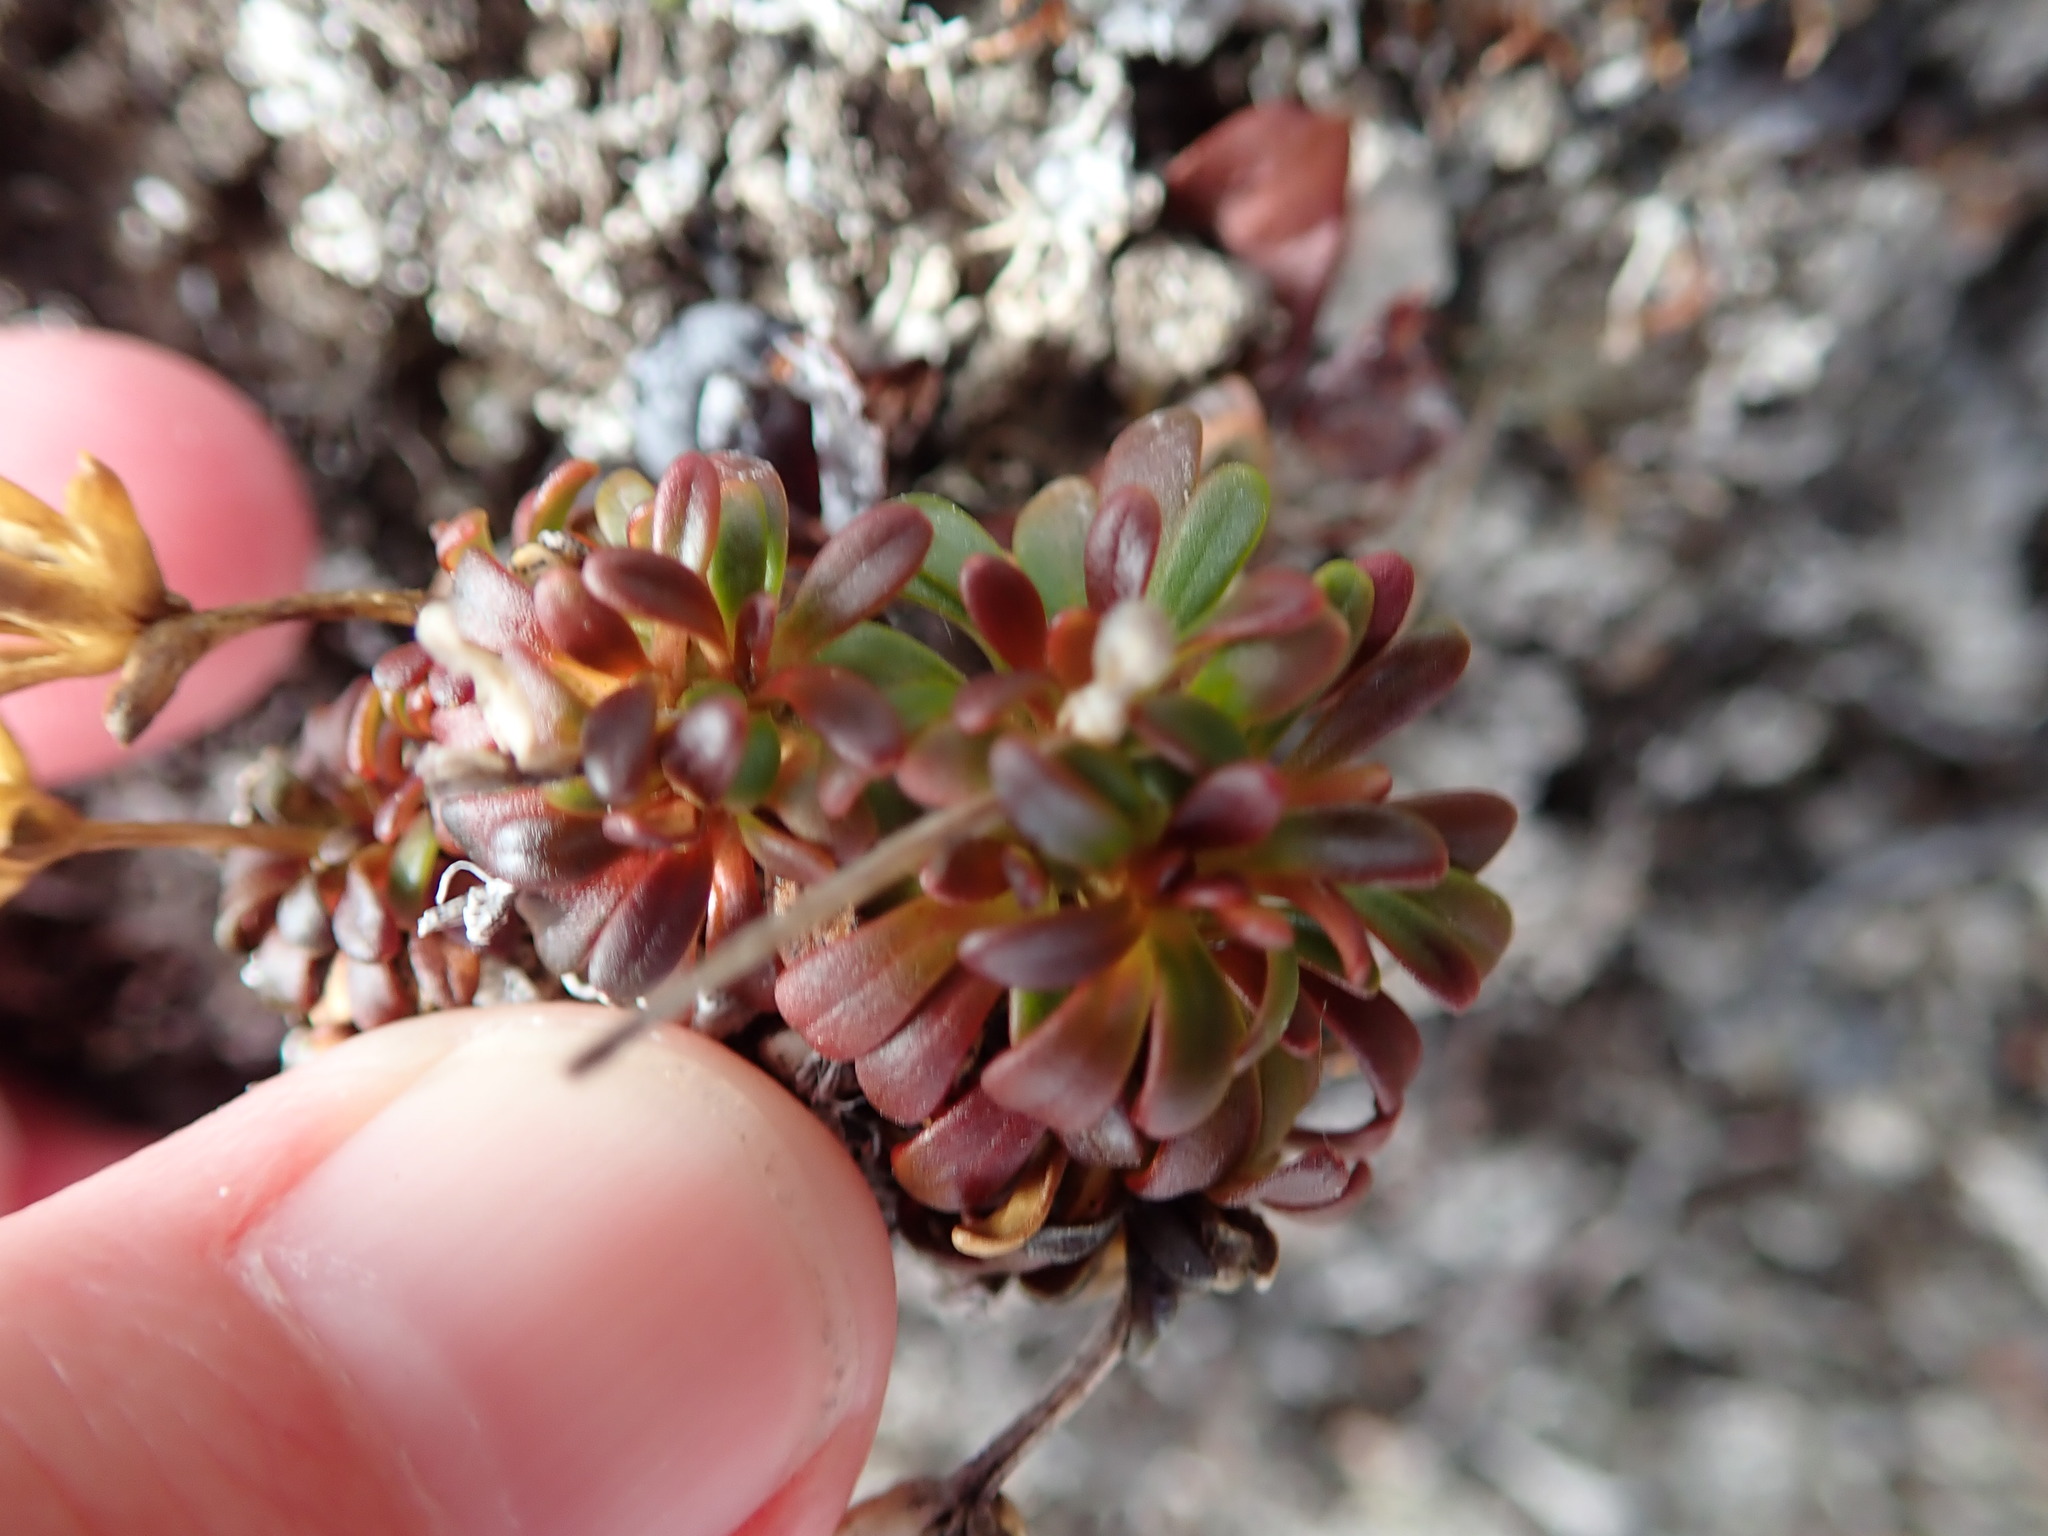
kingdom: Plantae
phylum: Tracheophyta
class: Magnoliopsida
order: Ericales
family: Diapensiaceae
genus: Diapensia
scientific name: Diapensia lapponica
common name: Diapensia
